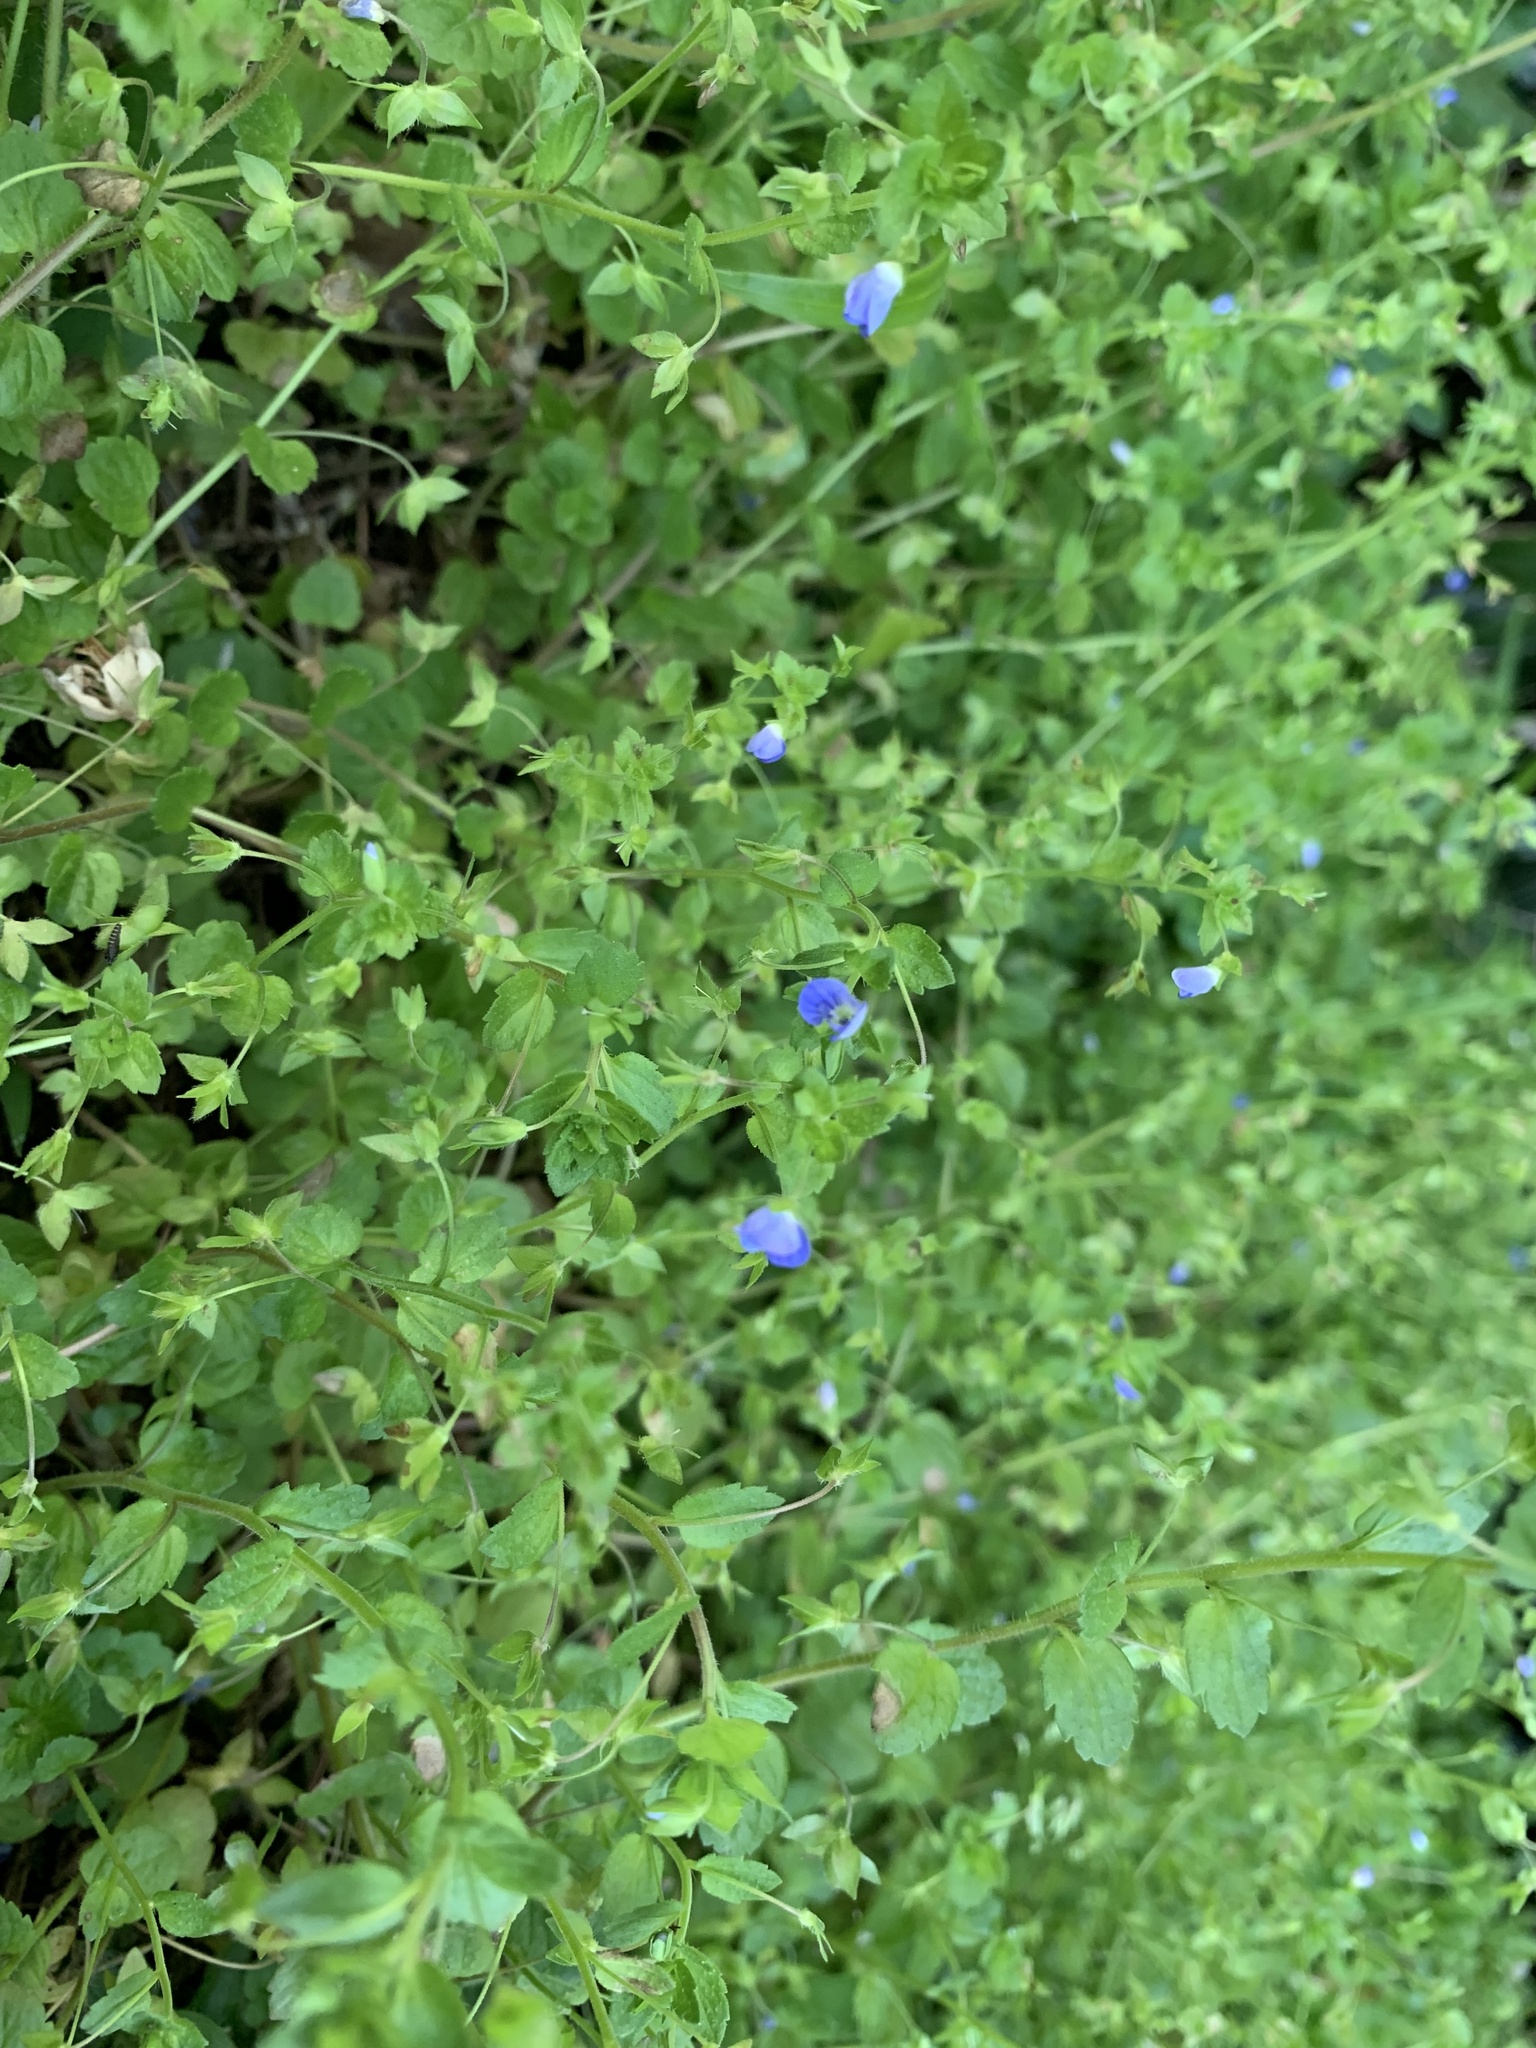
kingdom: Plantae
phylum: Tracheophyta
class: Magnoliopsida
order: Lamiales
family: Plantaginaceae
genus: Veronica
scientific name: Veronica persica
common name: Common field-speedwell
